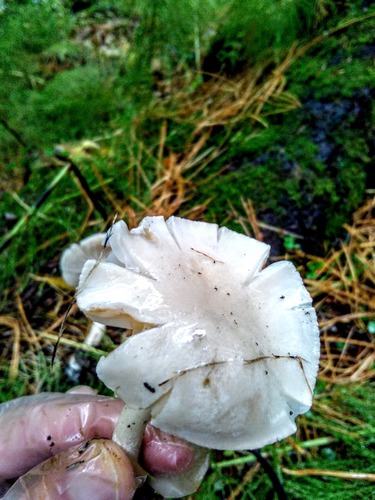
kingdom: Fungi
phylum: Basidiomycota
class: Agaricomycetes
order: Agaricales
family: Hygrophoraceae
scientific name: Hygrophoraceae
